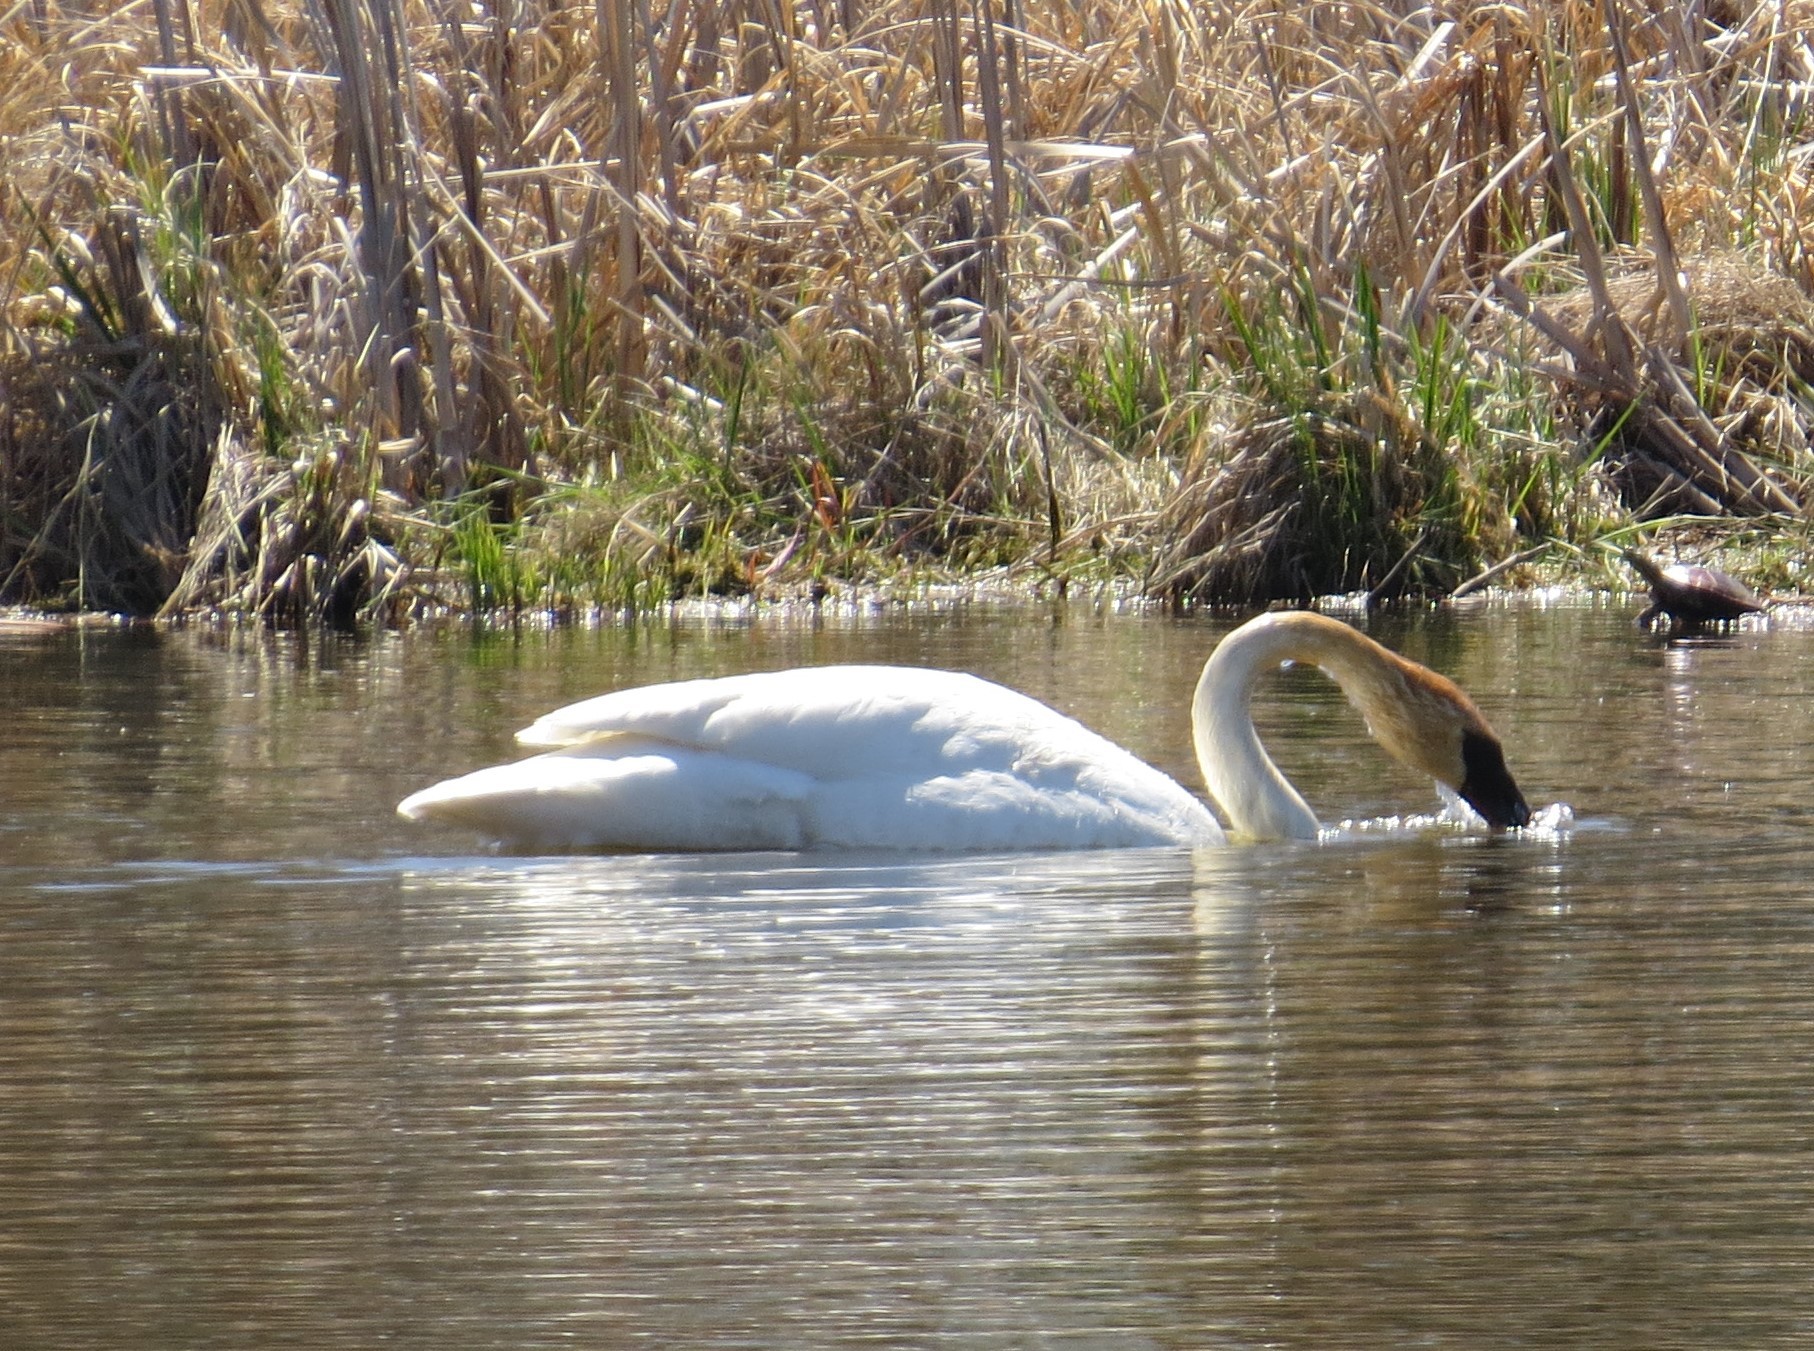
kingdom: Animalia
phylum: Chordata
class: Aves
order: Anseriformes
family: Anatidae
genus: Cygnus
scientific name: Cygnus buccinator
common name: Trumpeter swan
